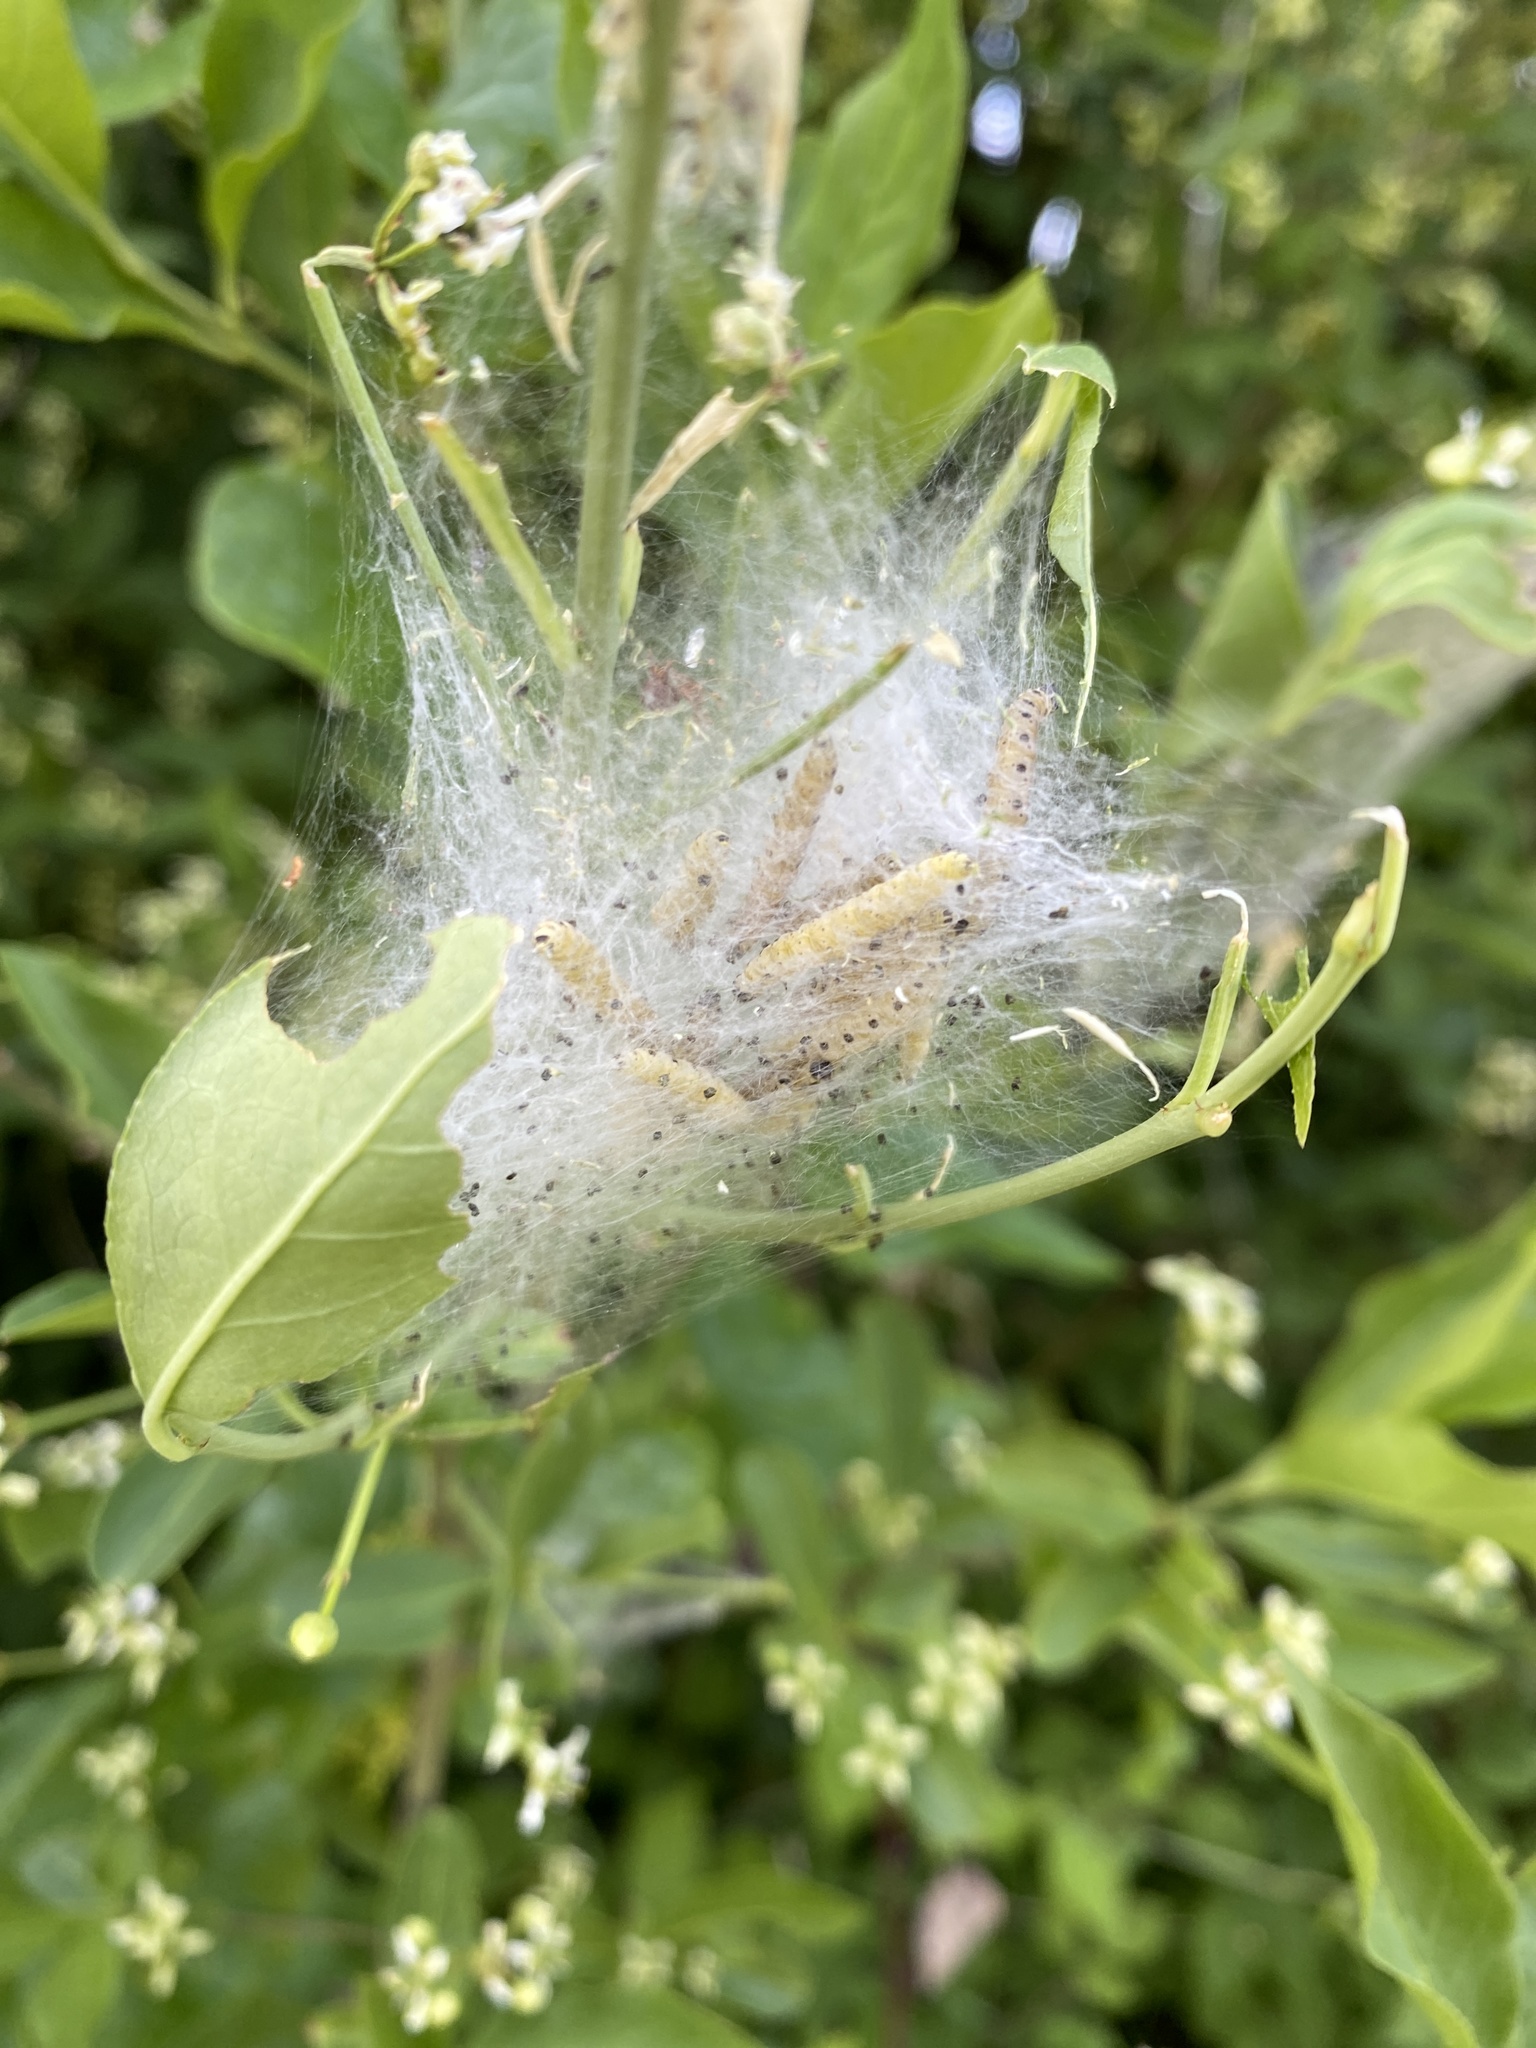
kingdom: Animalia
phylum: Arthropoda
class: Insecta
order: Lepidoptera
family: Yponomeutidae
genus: Yponomeuta
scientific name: Yponomeuta cagnagellus
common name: Spindle ermine
